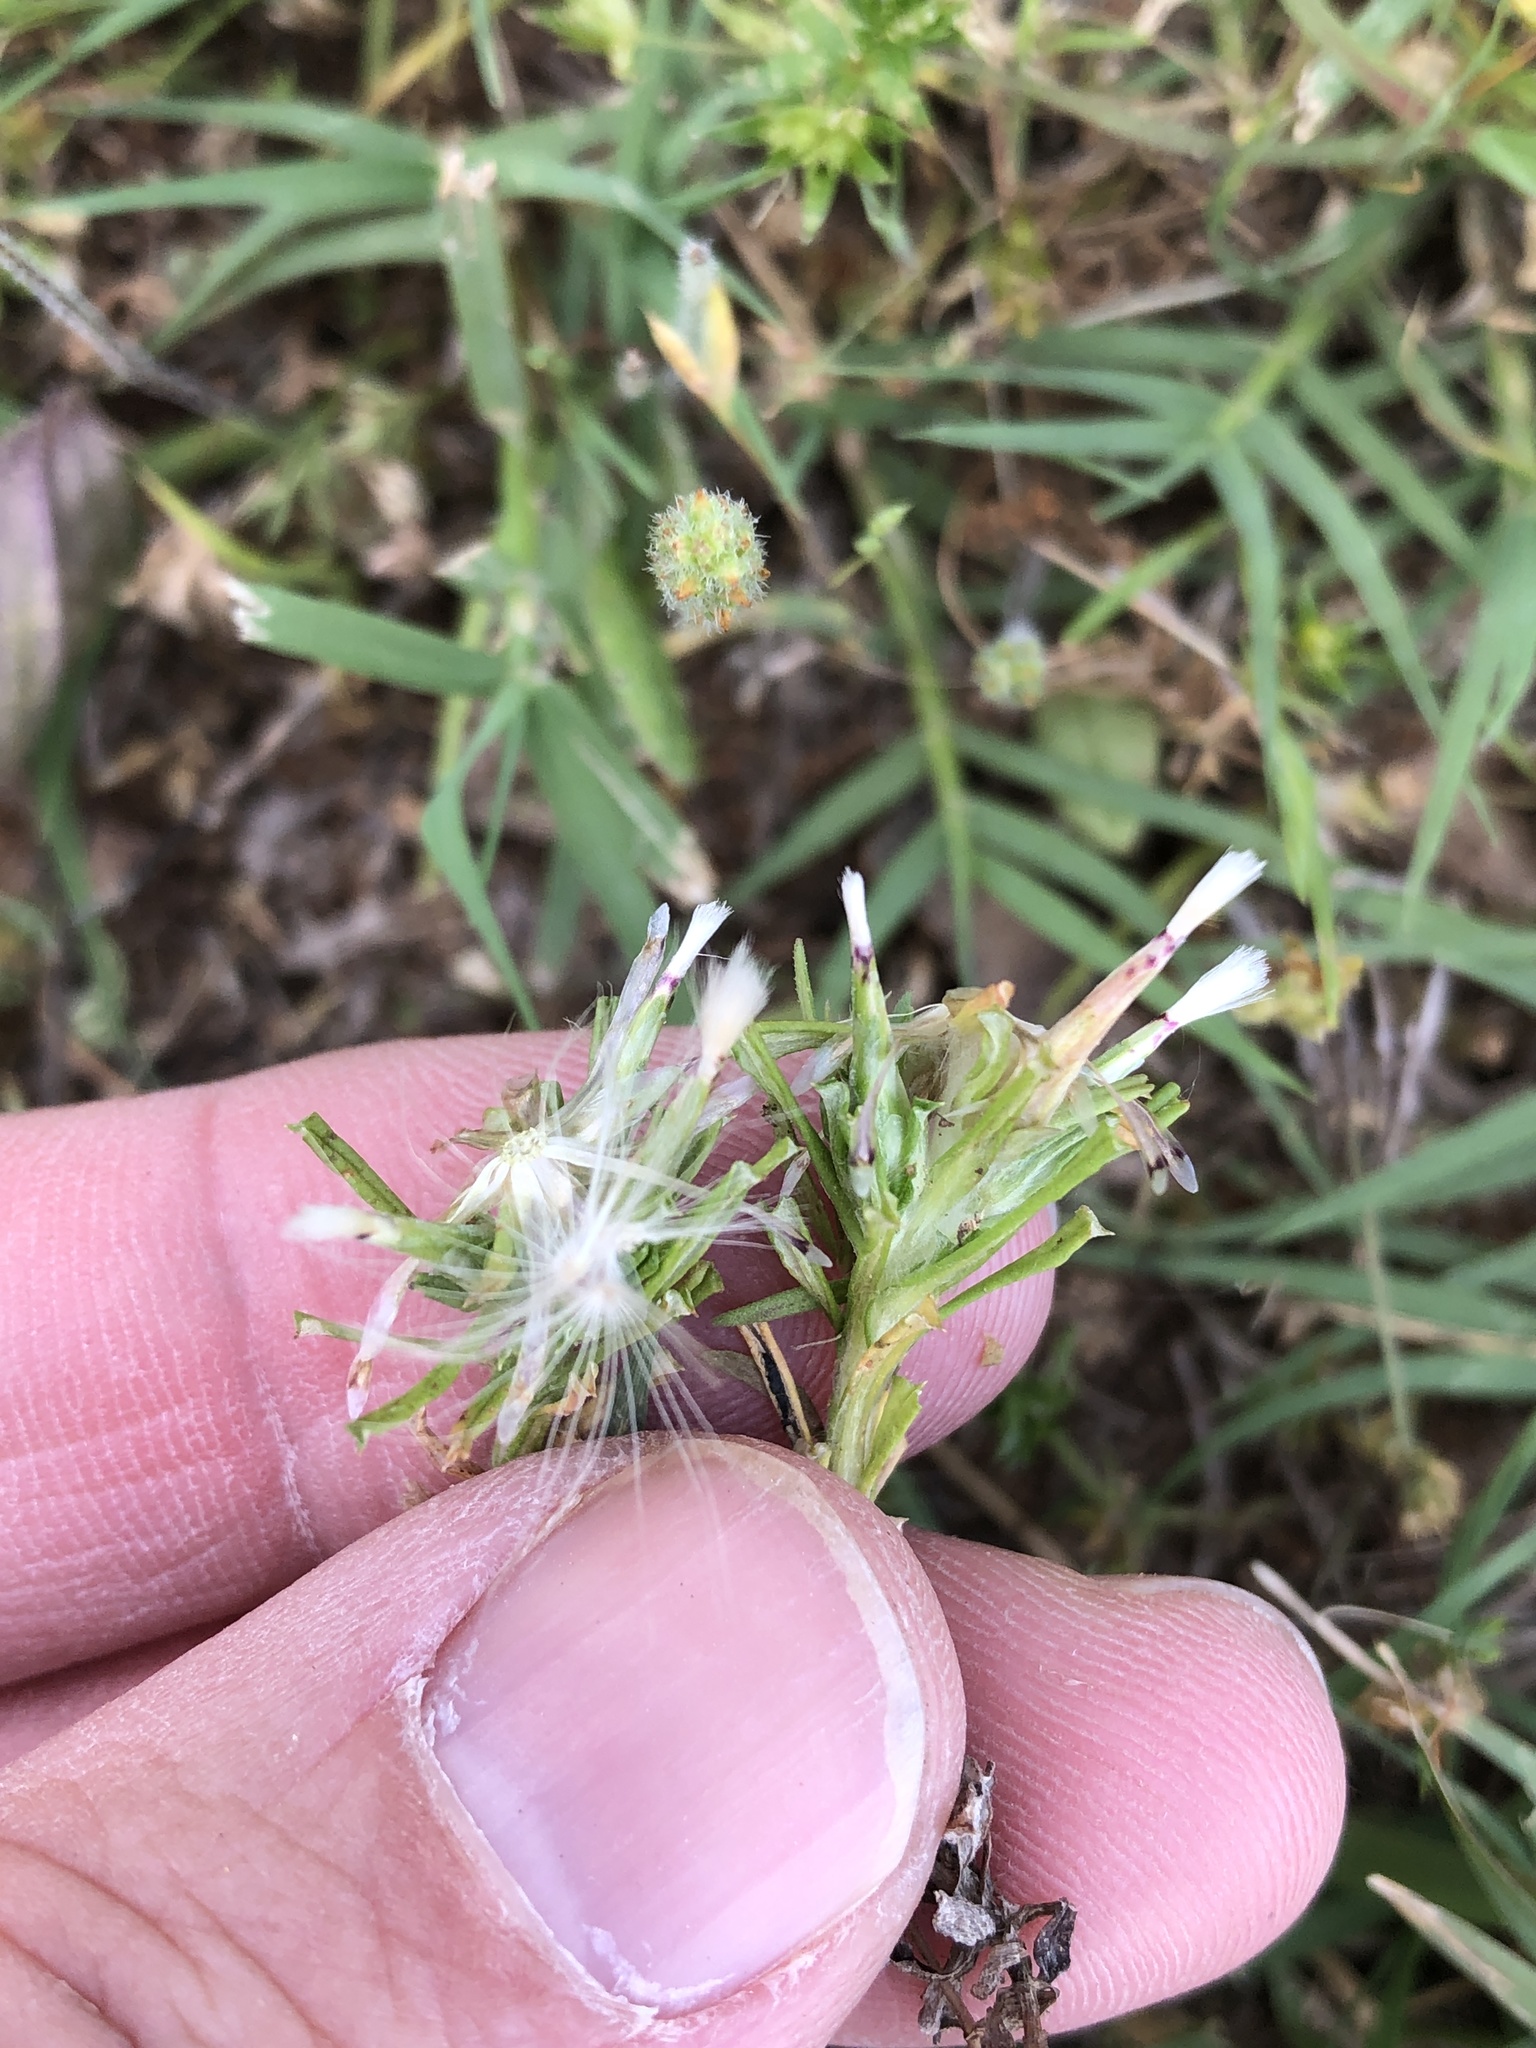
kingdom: Plantae
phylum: Tracheophyta
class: Magnoliopsida
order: Asterales
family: Asteraceae
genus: Facelis
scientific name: Facelis retusa
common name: Annual trampweed
